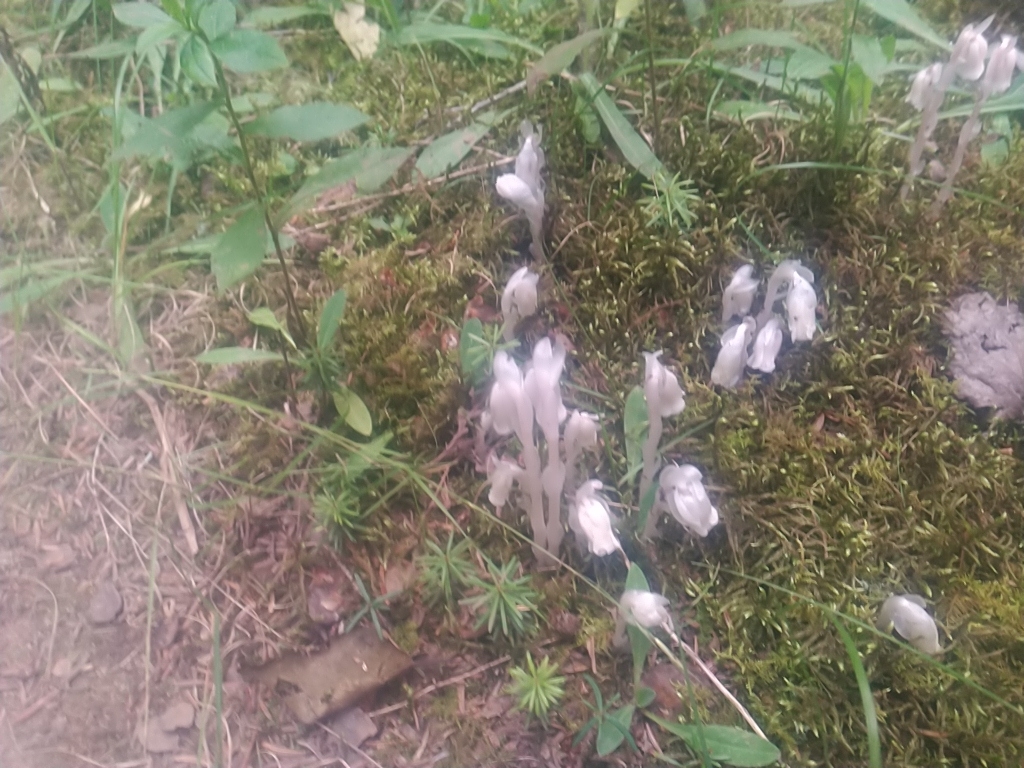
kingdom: Plantae
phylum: Tracheophyta
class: Magnoliopsida
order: Ericales
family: Ericaceae
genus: Monotropa
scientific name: Monotropa uniflora
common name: Convulsion root
